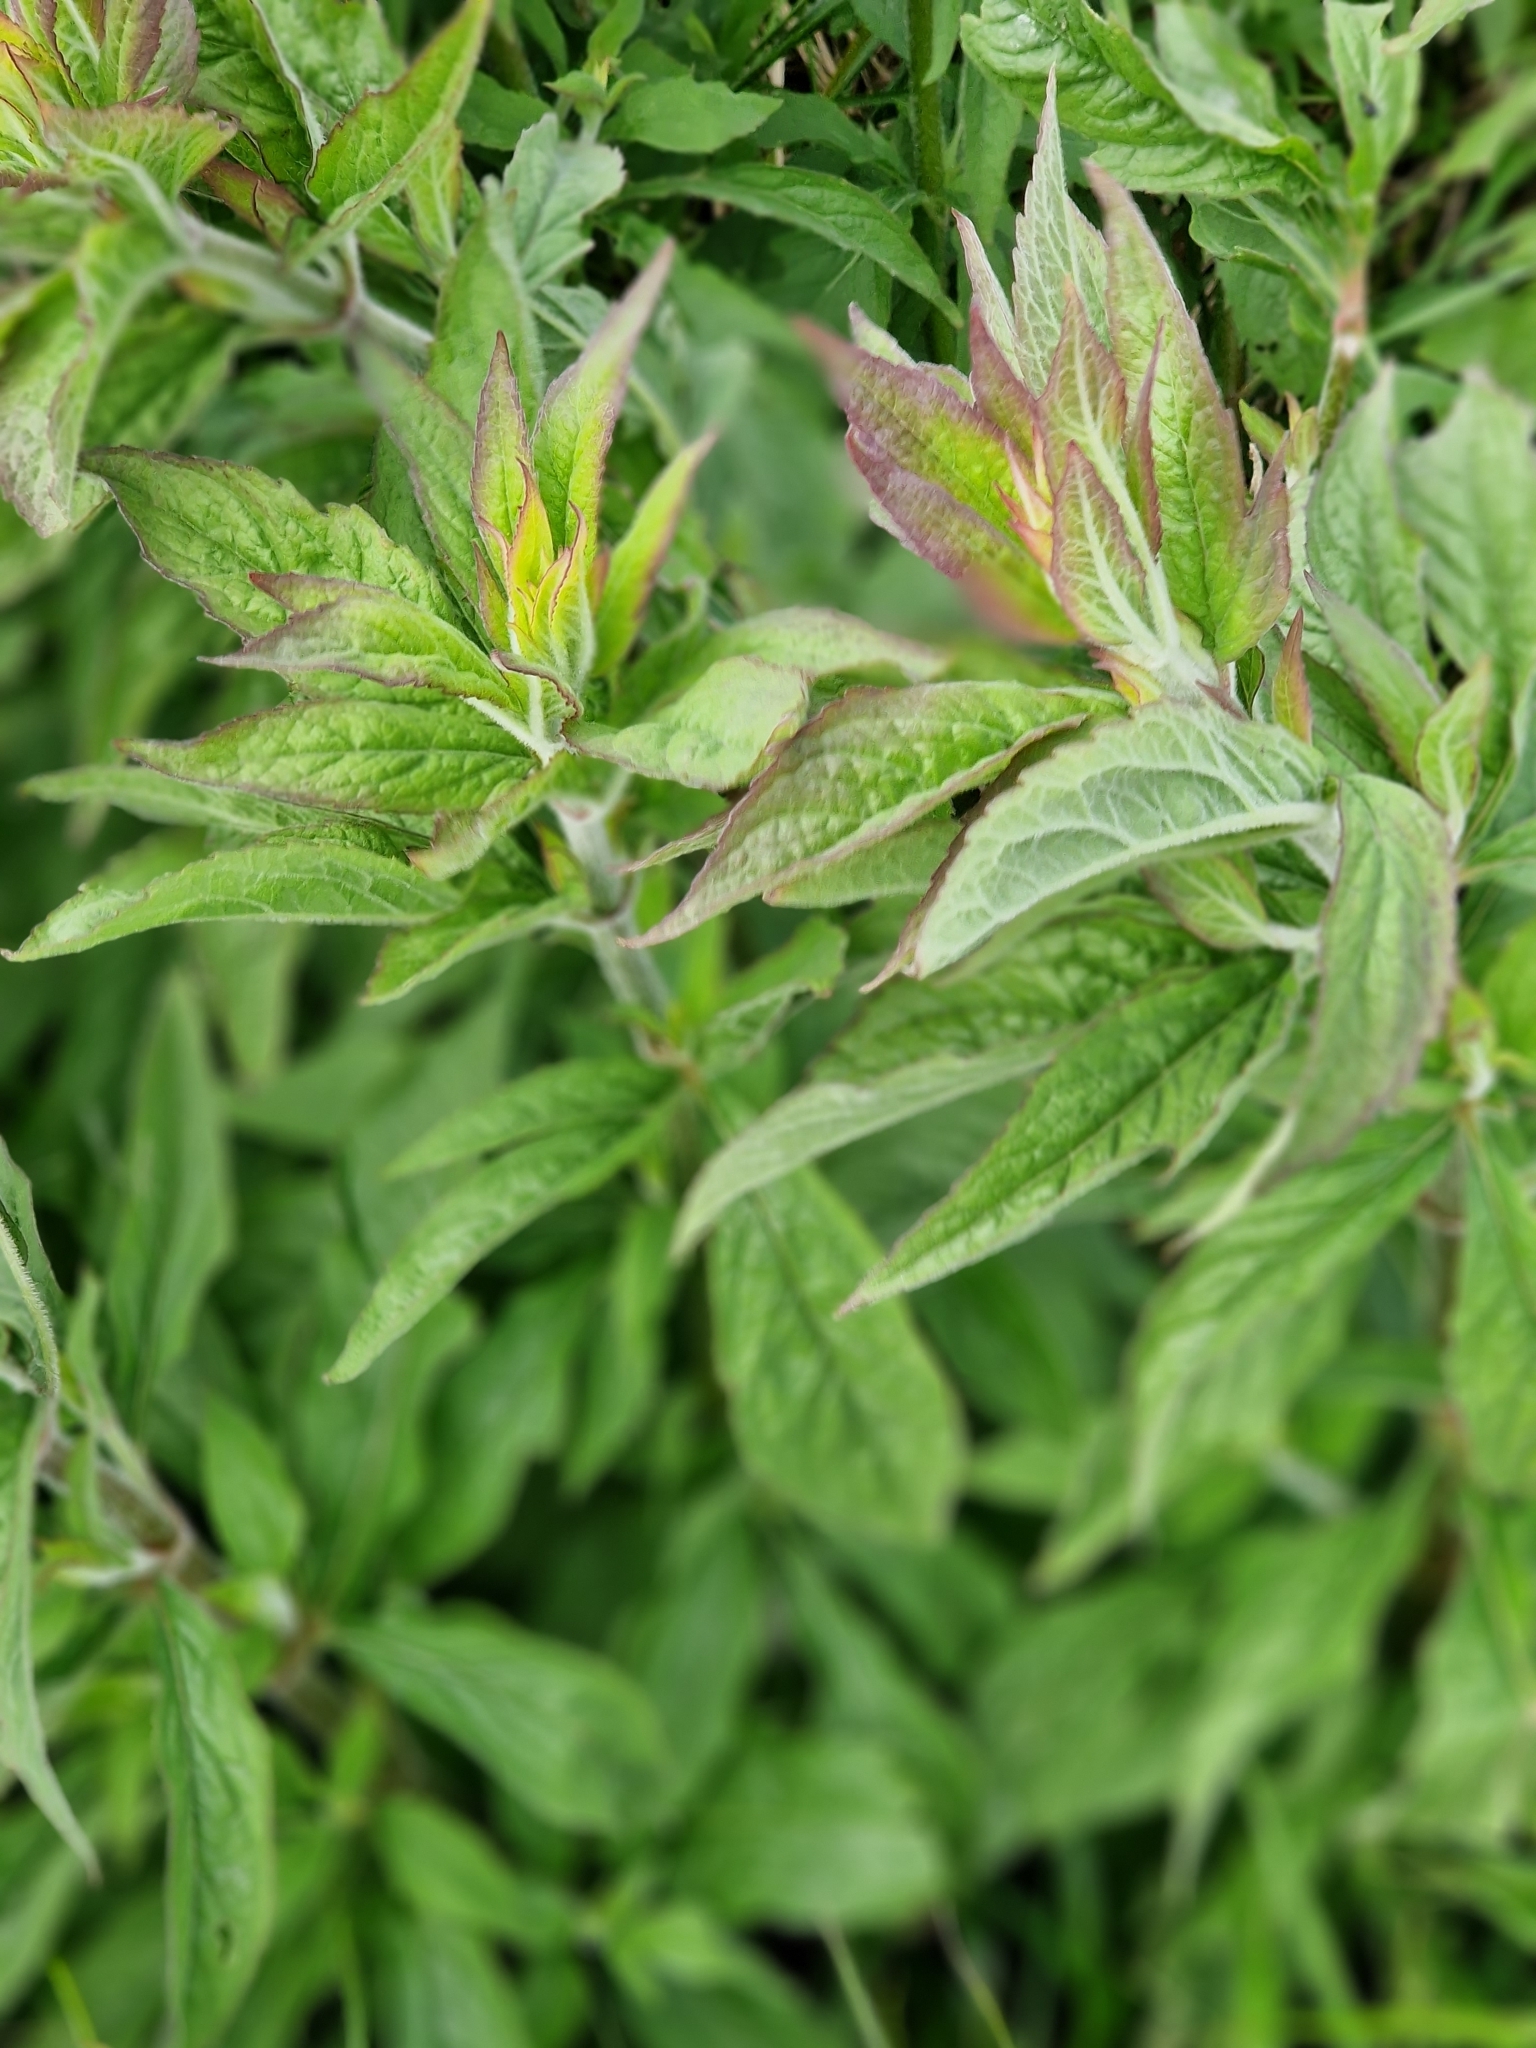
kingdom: Plantae
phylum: Tracheophyta
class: Magnoliopsida
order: Asterales
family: Asteraceae
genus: Eupatorium
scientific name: Eupatorium cannabinum
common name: Hemp-agrimony
